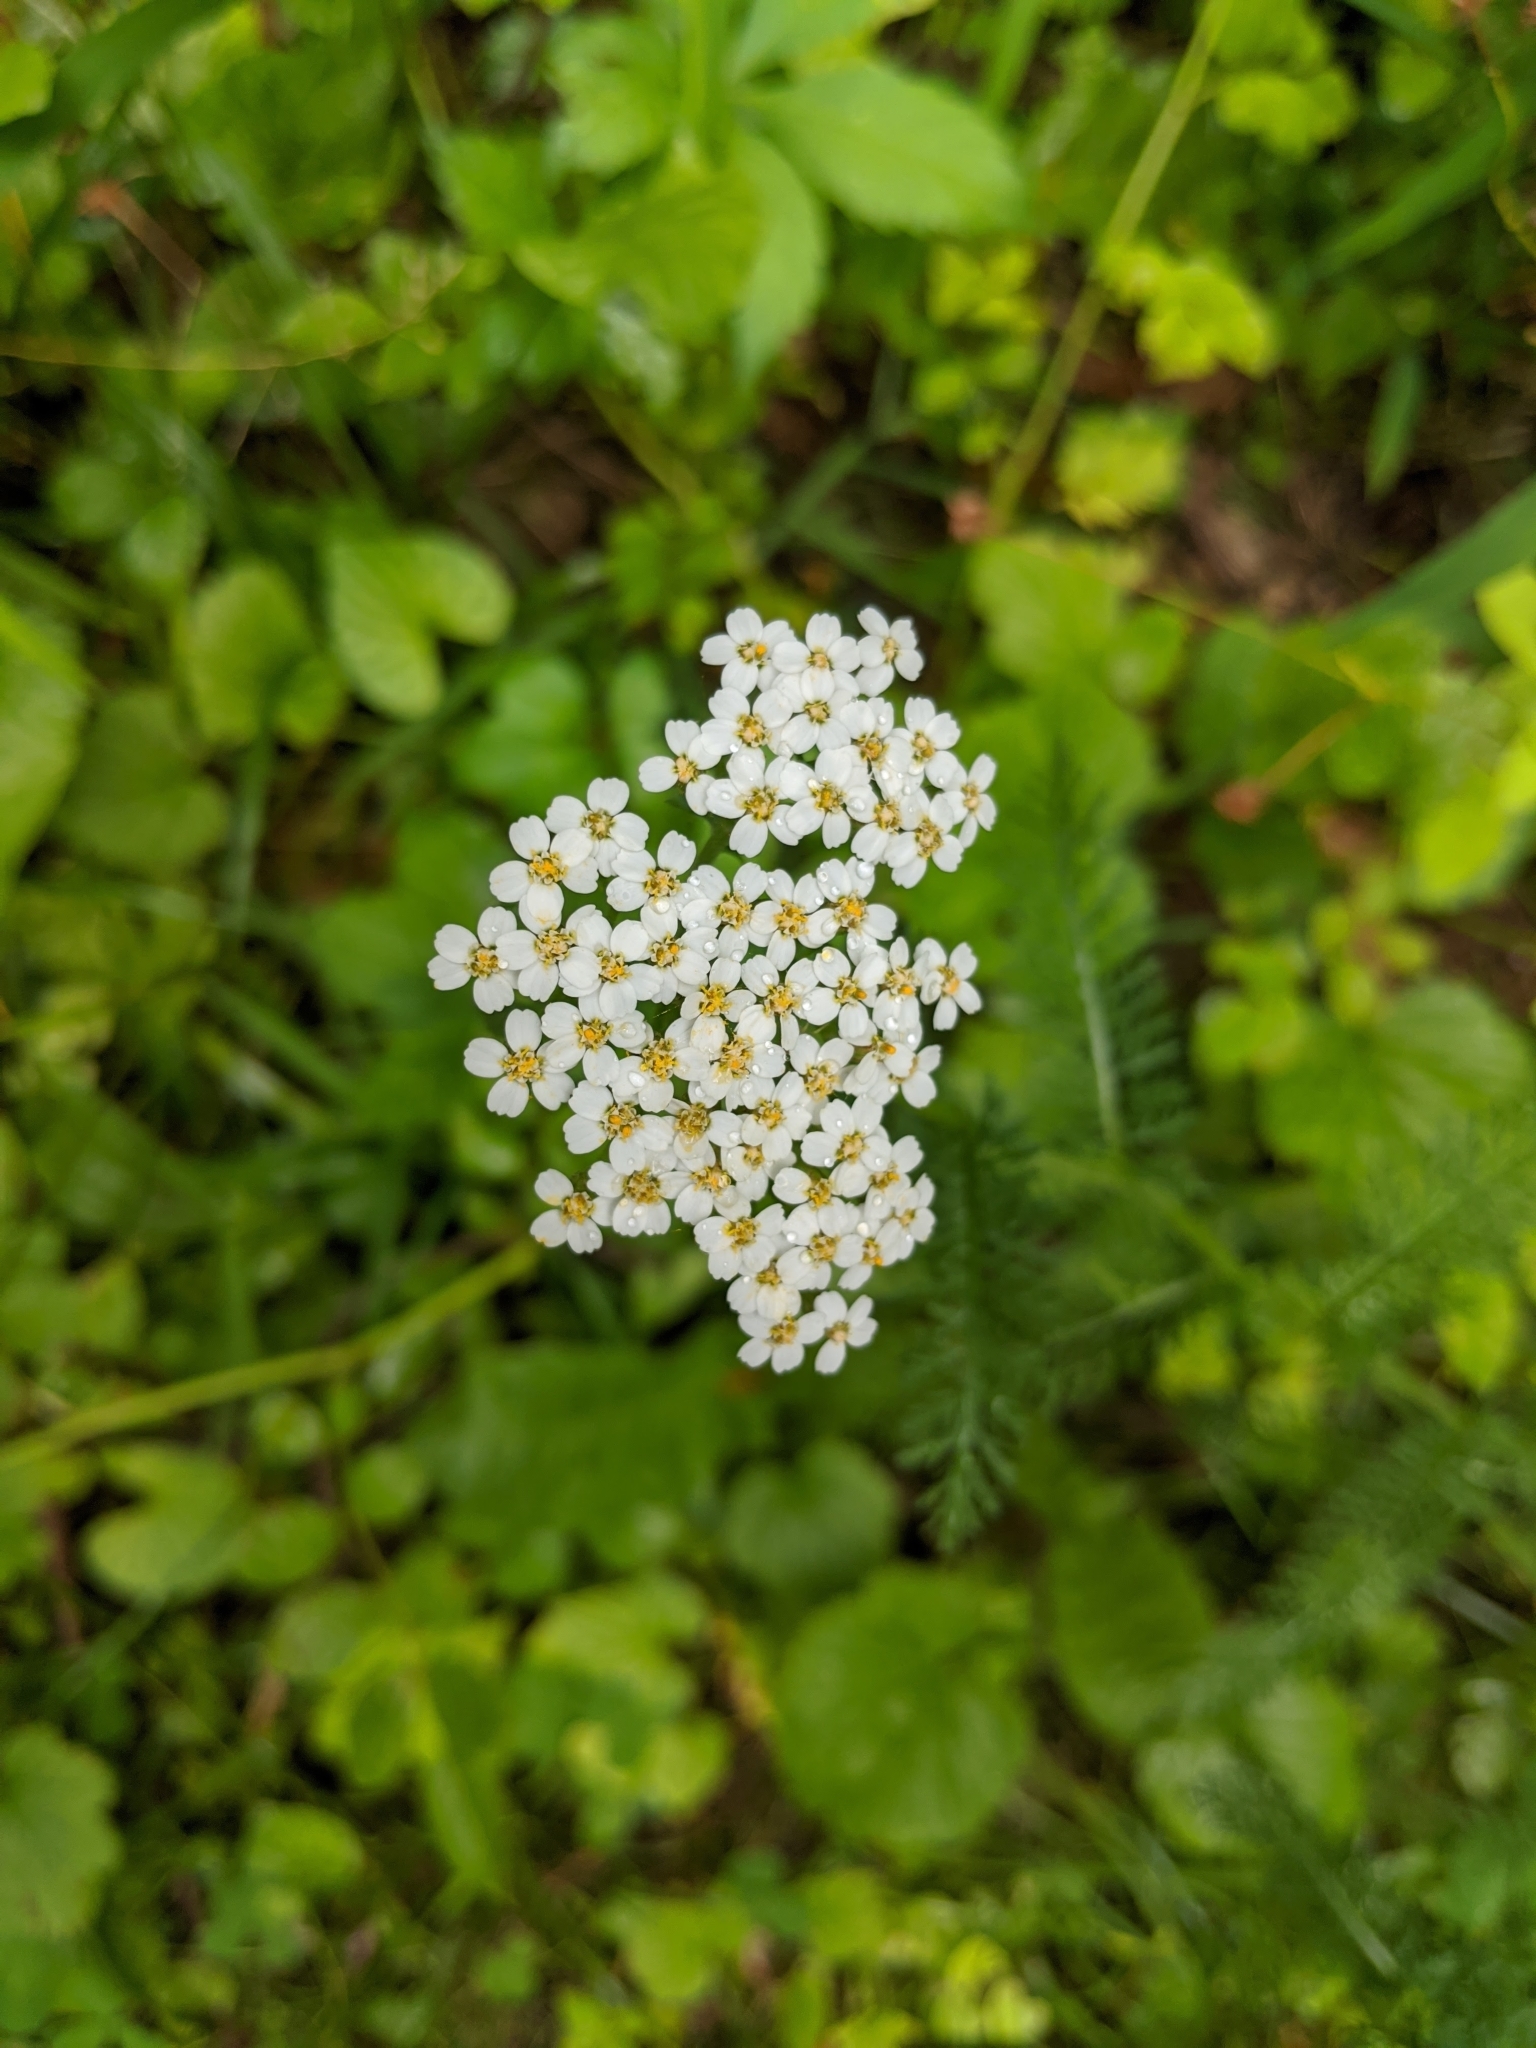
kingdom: Plantae
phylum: Tracheophyta
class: Magnoliopsida
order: Asterales
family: Asteraceae
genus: Achillea
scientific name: Achillea millefolium
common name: Yarrow
